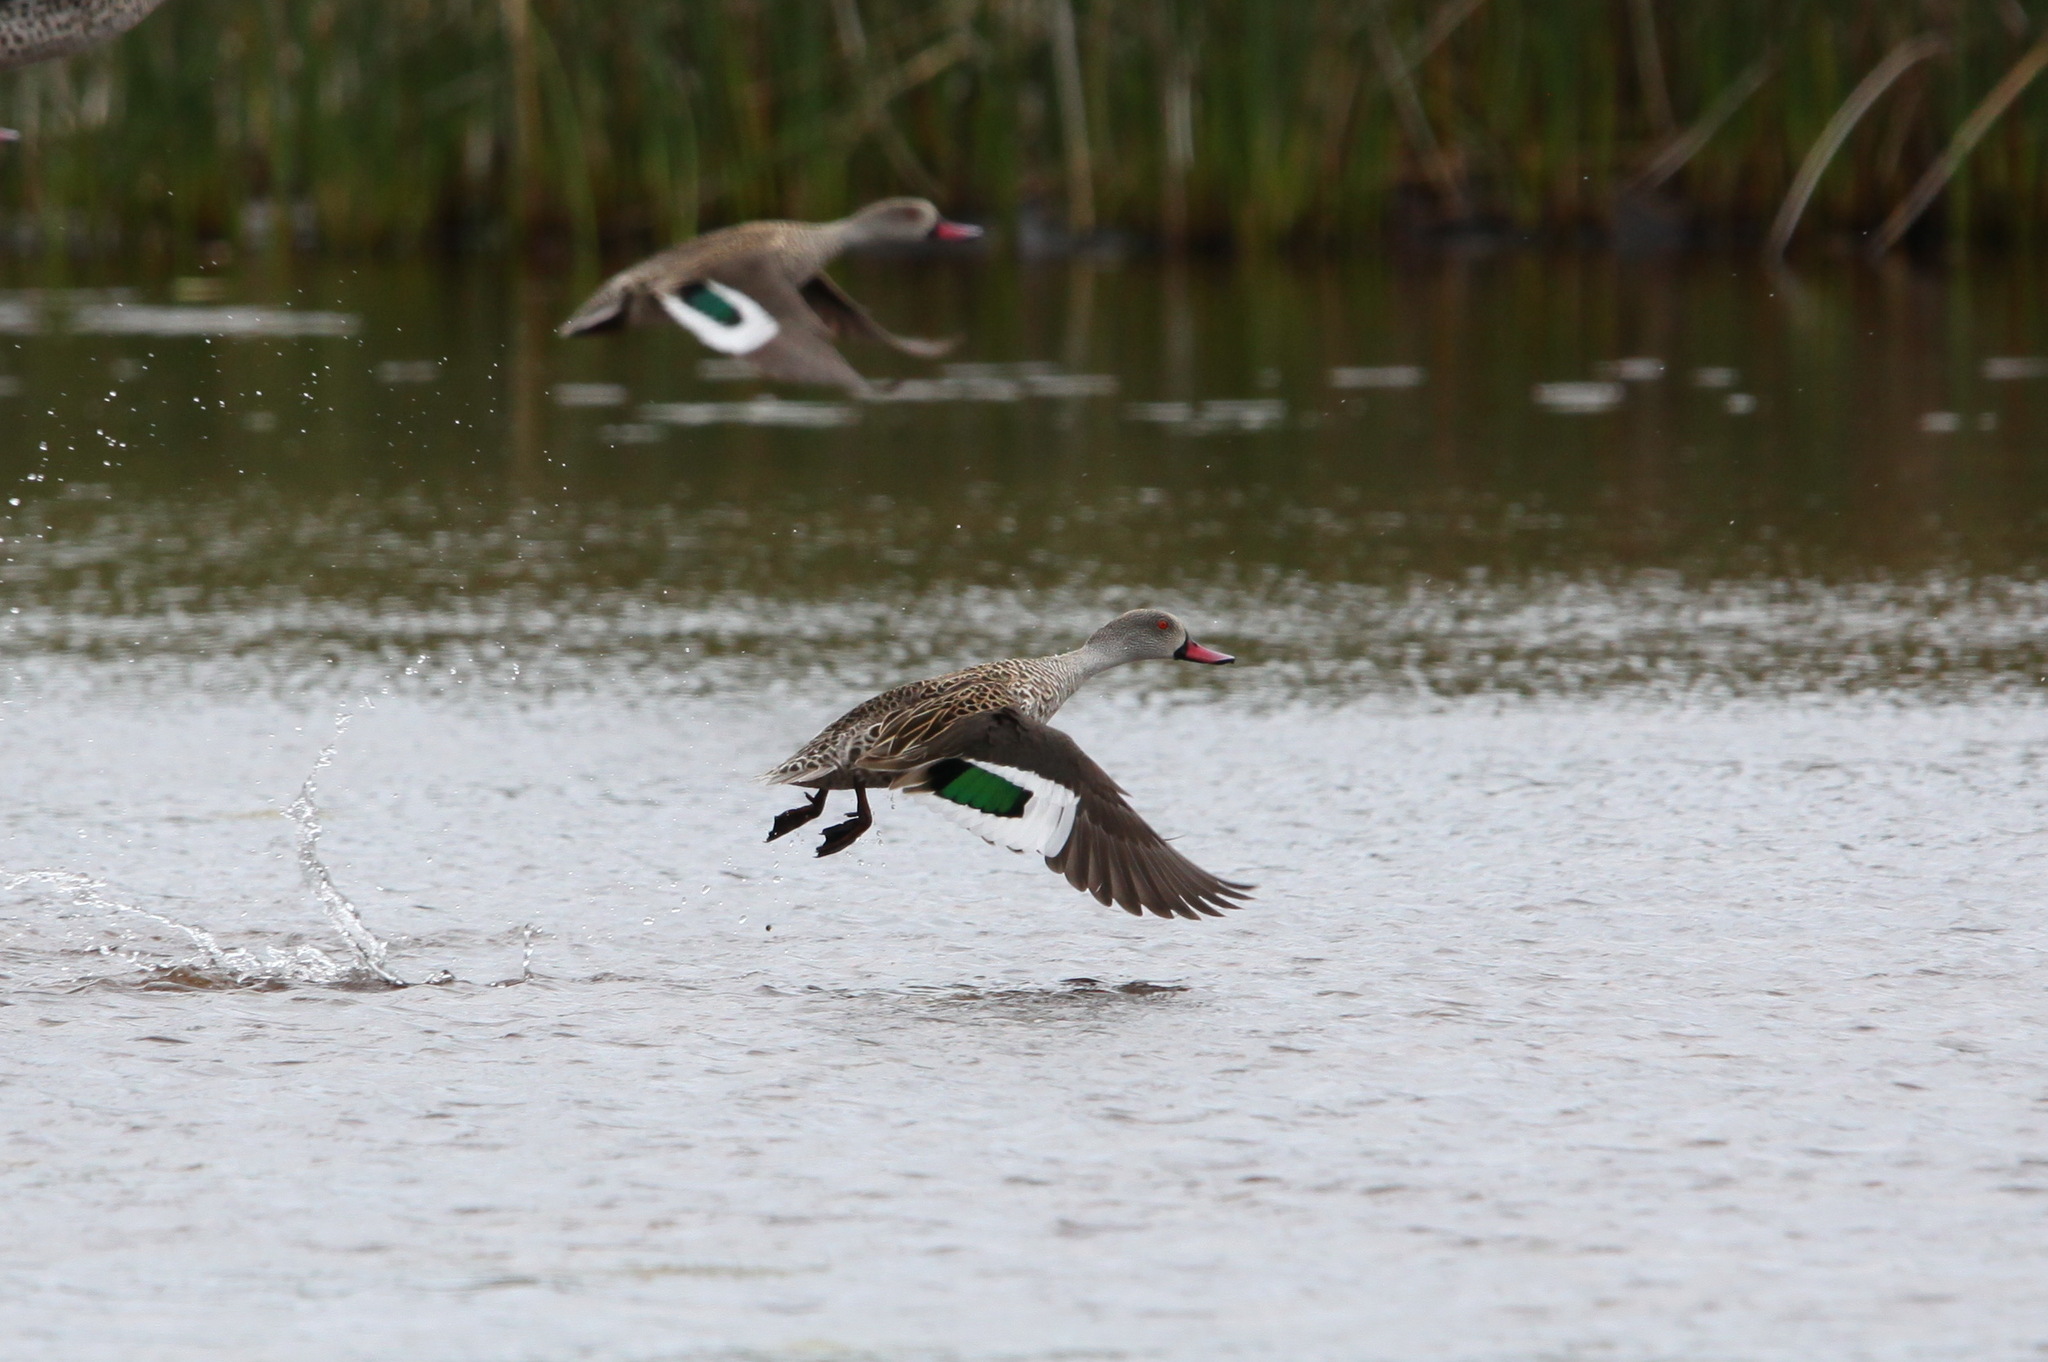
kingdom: Animalia
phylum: Chordata
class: Aves
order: Anseriformes
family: Anatidae
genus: Anas
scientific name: Anas capensis
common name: Cape teal
